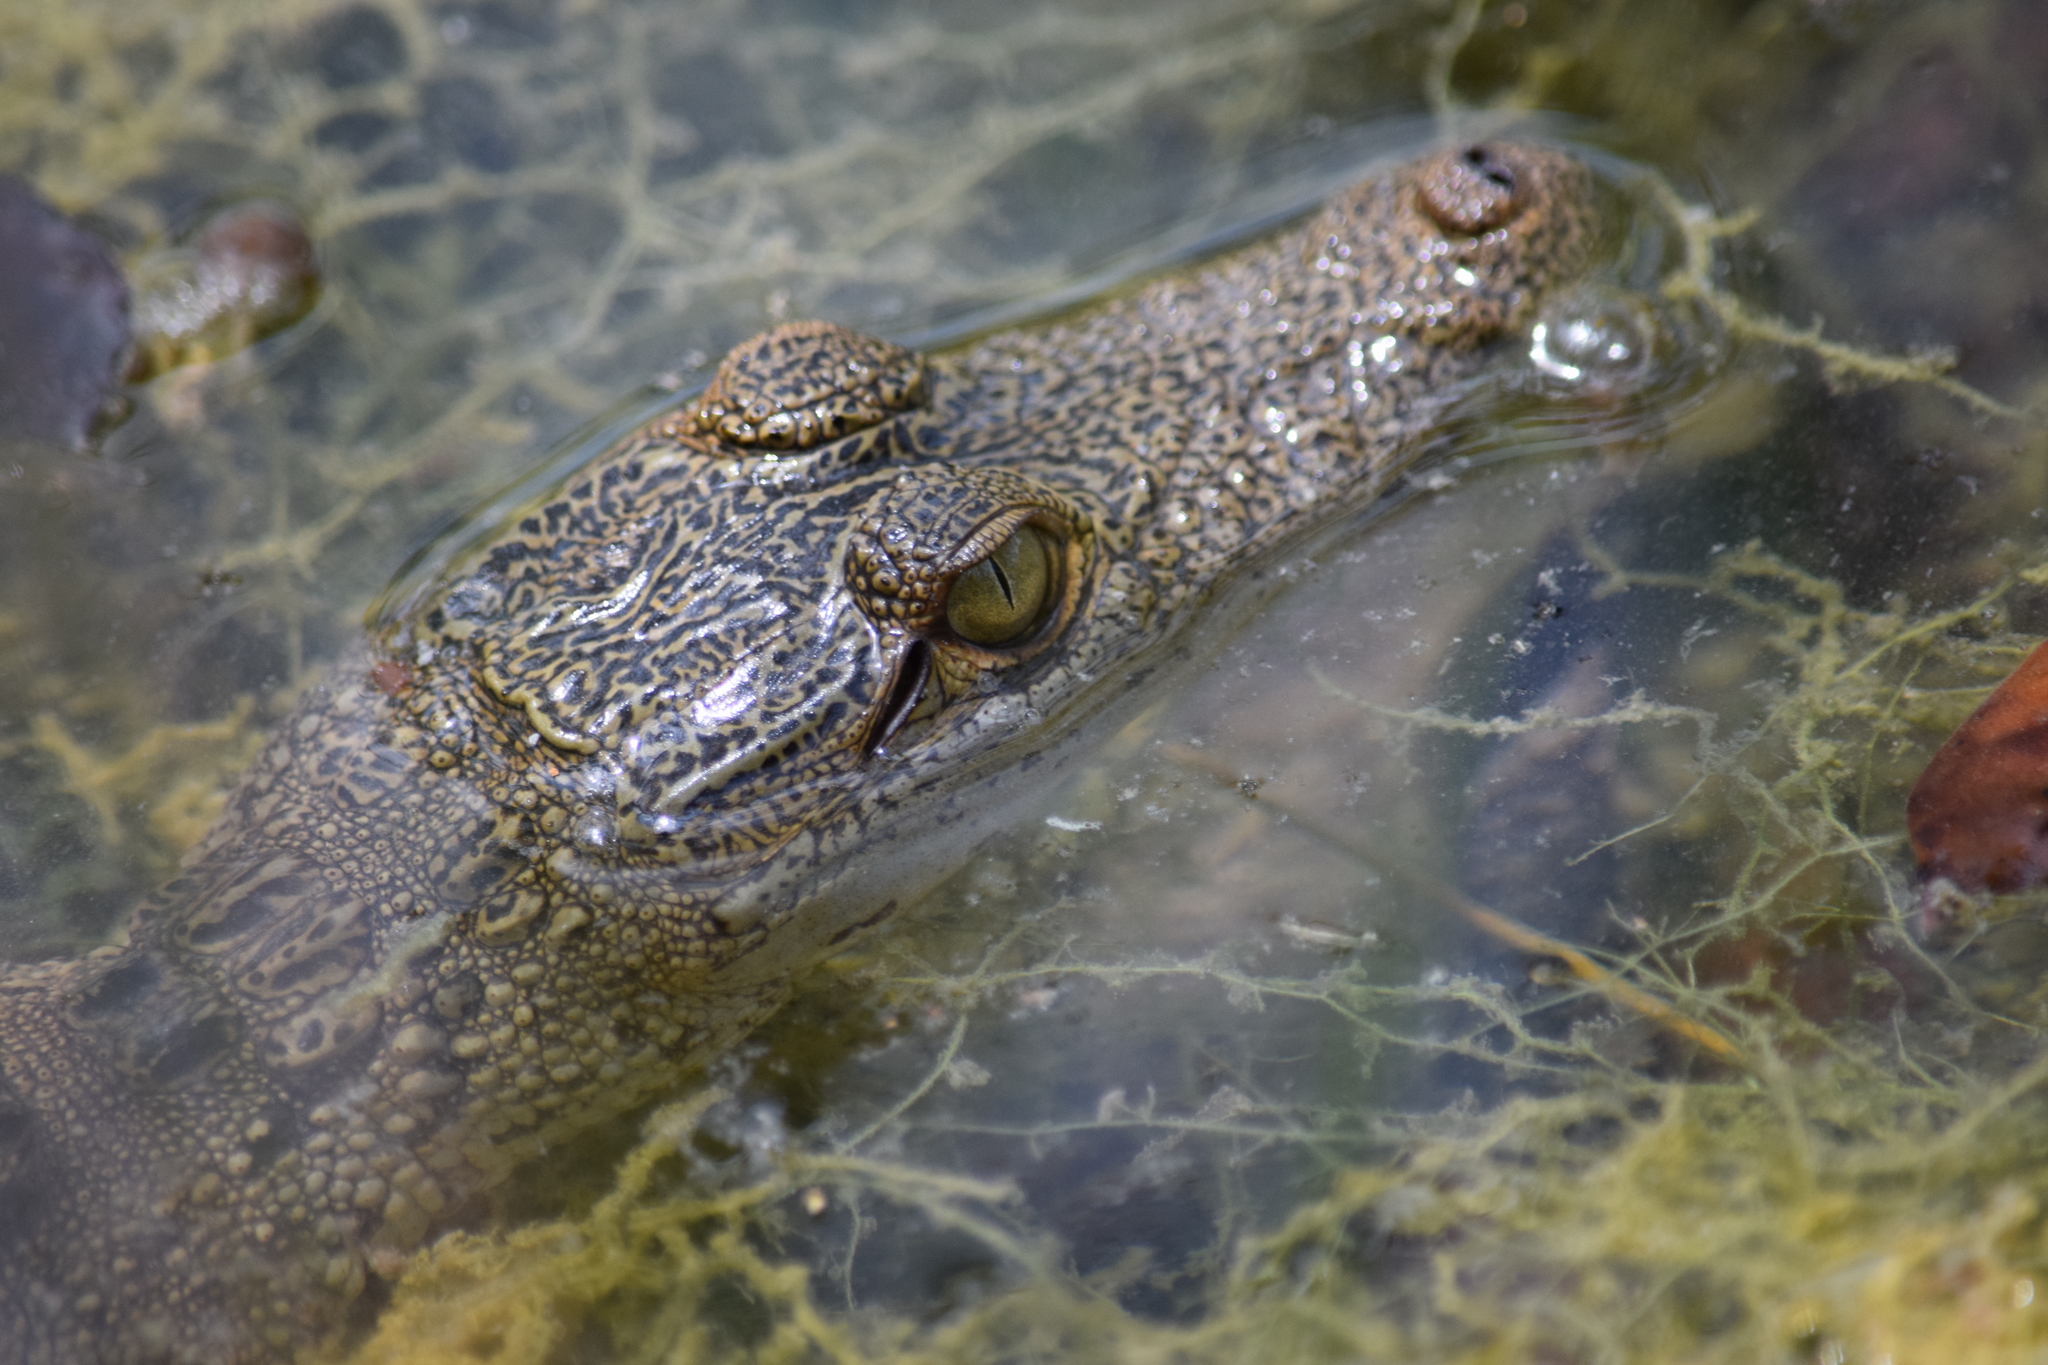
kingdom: Animalia
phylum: Chordata
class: Crocodylia
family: Crocodylidae
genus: Crocodylus
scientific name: Crocodylus moreletii
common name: Morelet's crocodile
